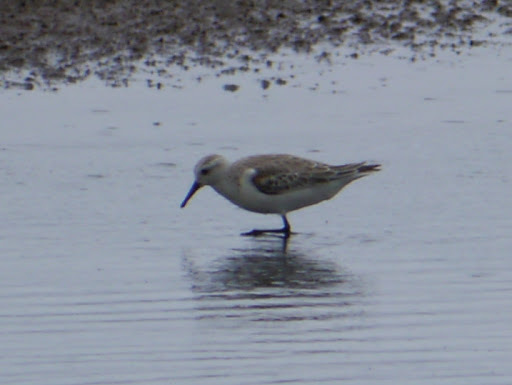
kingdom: Animalia
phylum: Chordata
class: Aves
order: Charadriiformes
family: Scolopacidae
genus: Calidris
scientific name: Calidris alba
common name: Sanderling
